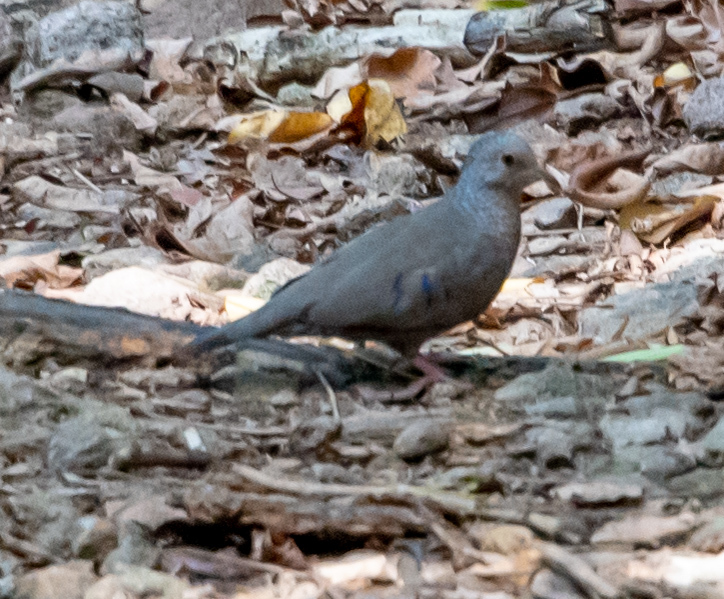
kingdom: Animalia
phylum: Chordata
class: Aves
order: Columbiformes
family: Columbidae
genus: Columbina
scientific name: Columbina passerina
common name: Common ground-dove
